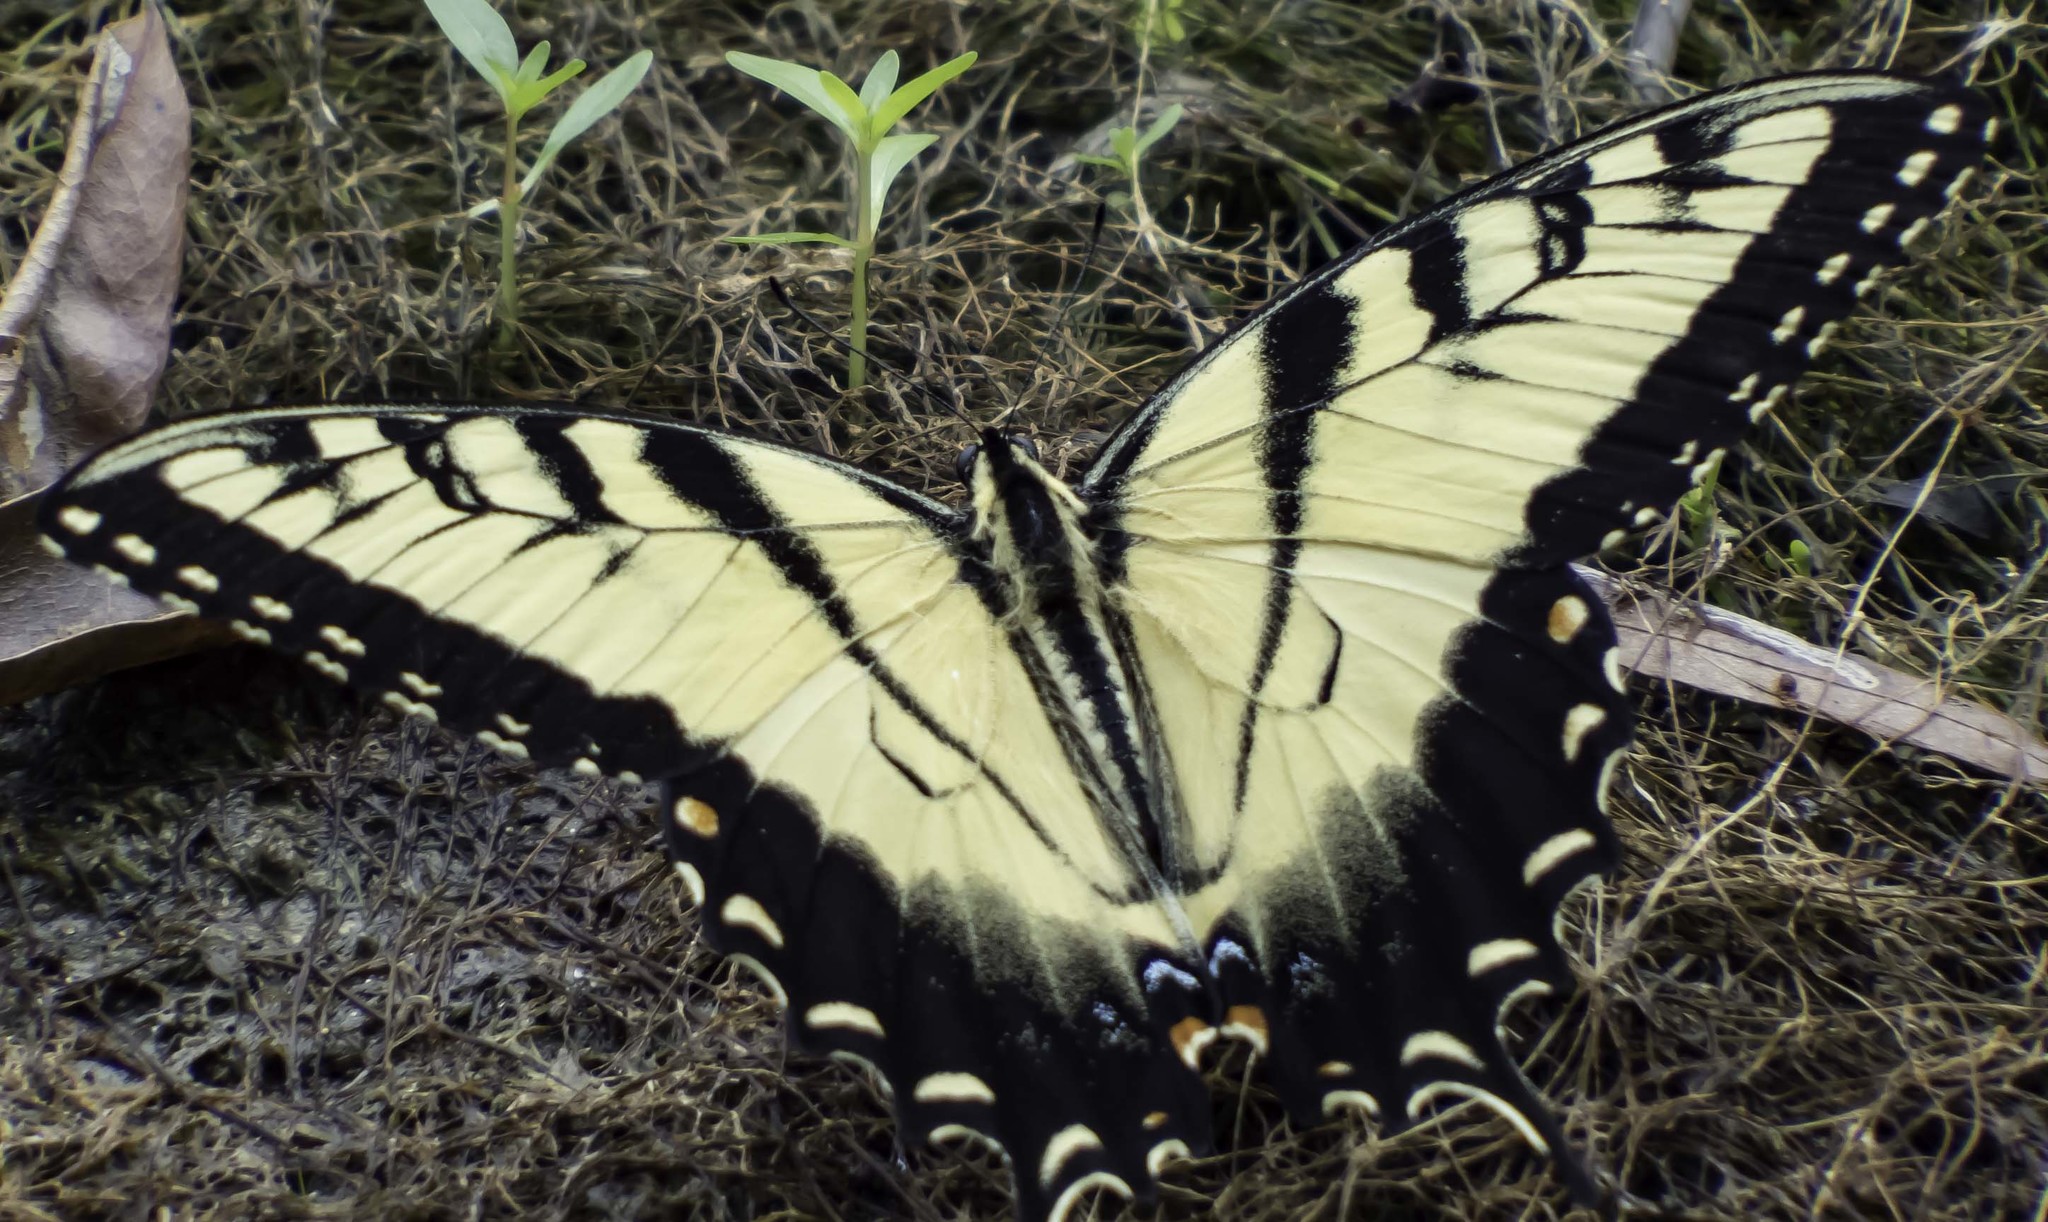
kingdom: Animalia
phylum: Arthropoda
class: Insecta
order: Lepidoptera
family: Papilionidae
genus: Papilio
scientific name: Papilio glaucus
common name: Tiger swallowtail
